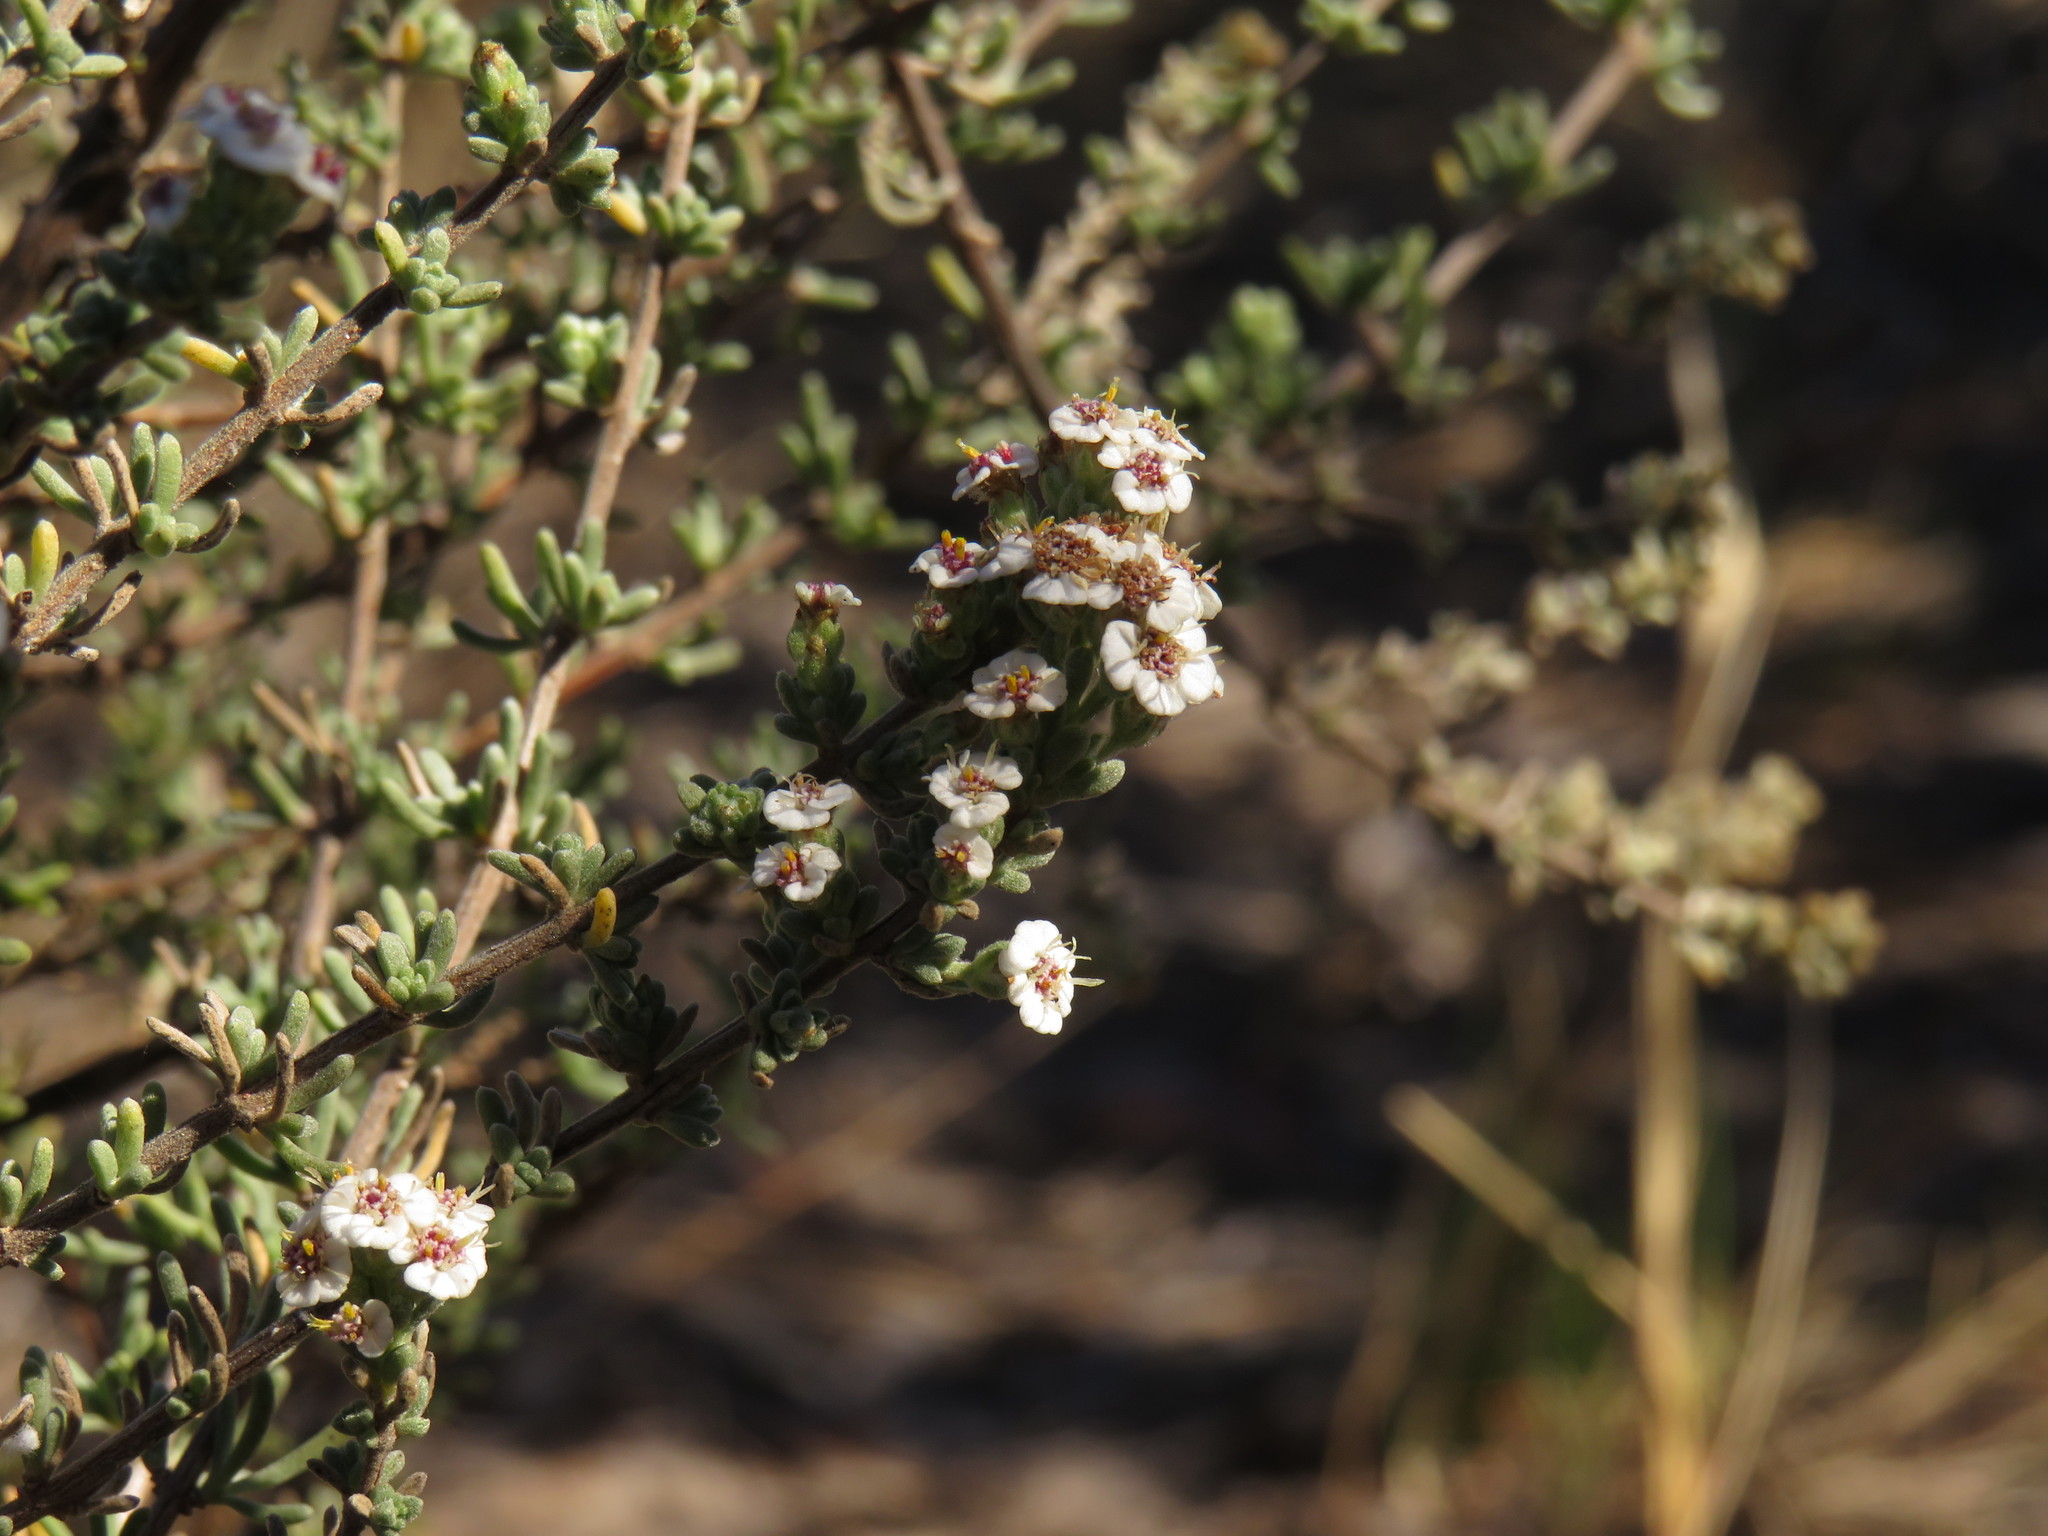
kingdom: Plantae
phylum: Tracheophyta
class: Magnoliopsida
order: Asterales
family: Asteraceae
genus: Eriocephalus
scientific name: Eriocephalus africanus
